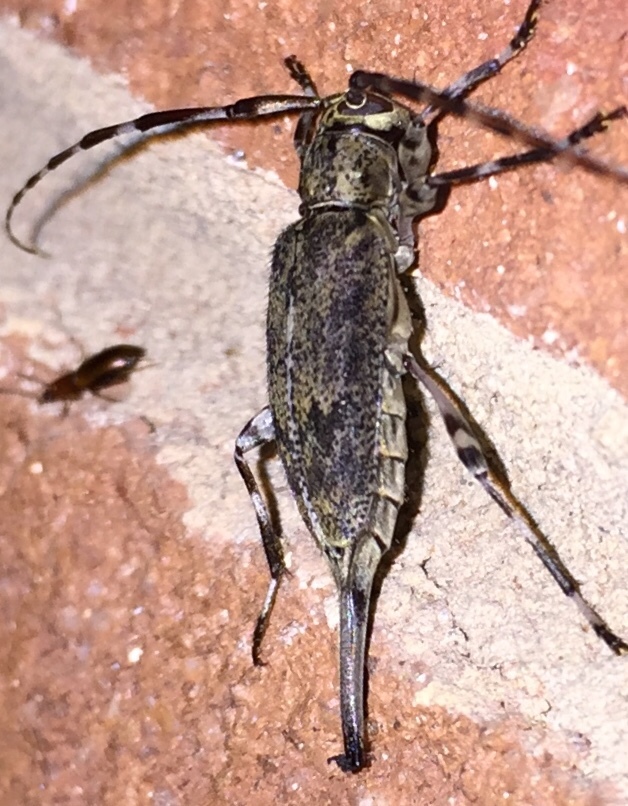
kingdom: Animalia
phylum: Arthropoda
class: Insecta
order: Coleoptera
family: Cerambycidae
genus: Graphisurus
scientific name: Graphisurus fasciatus
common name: Banded graphisurus
